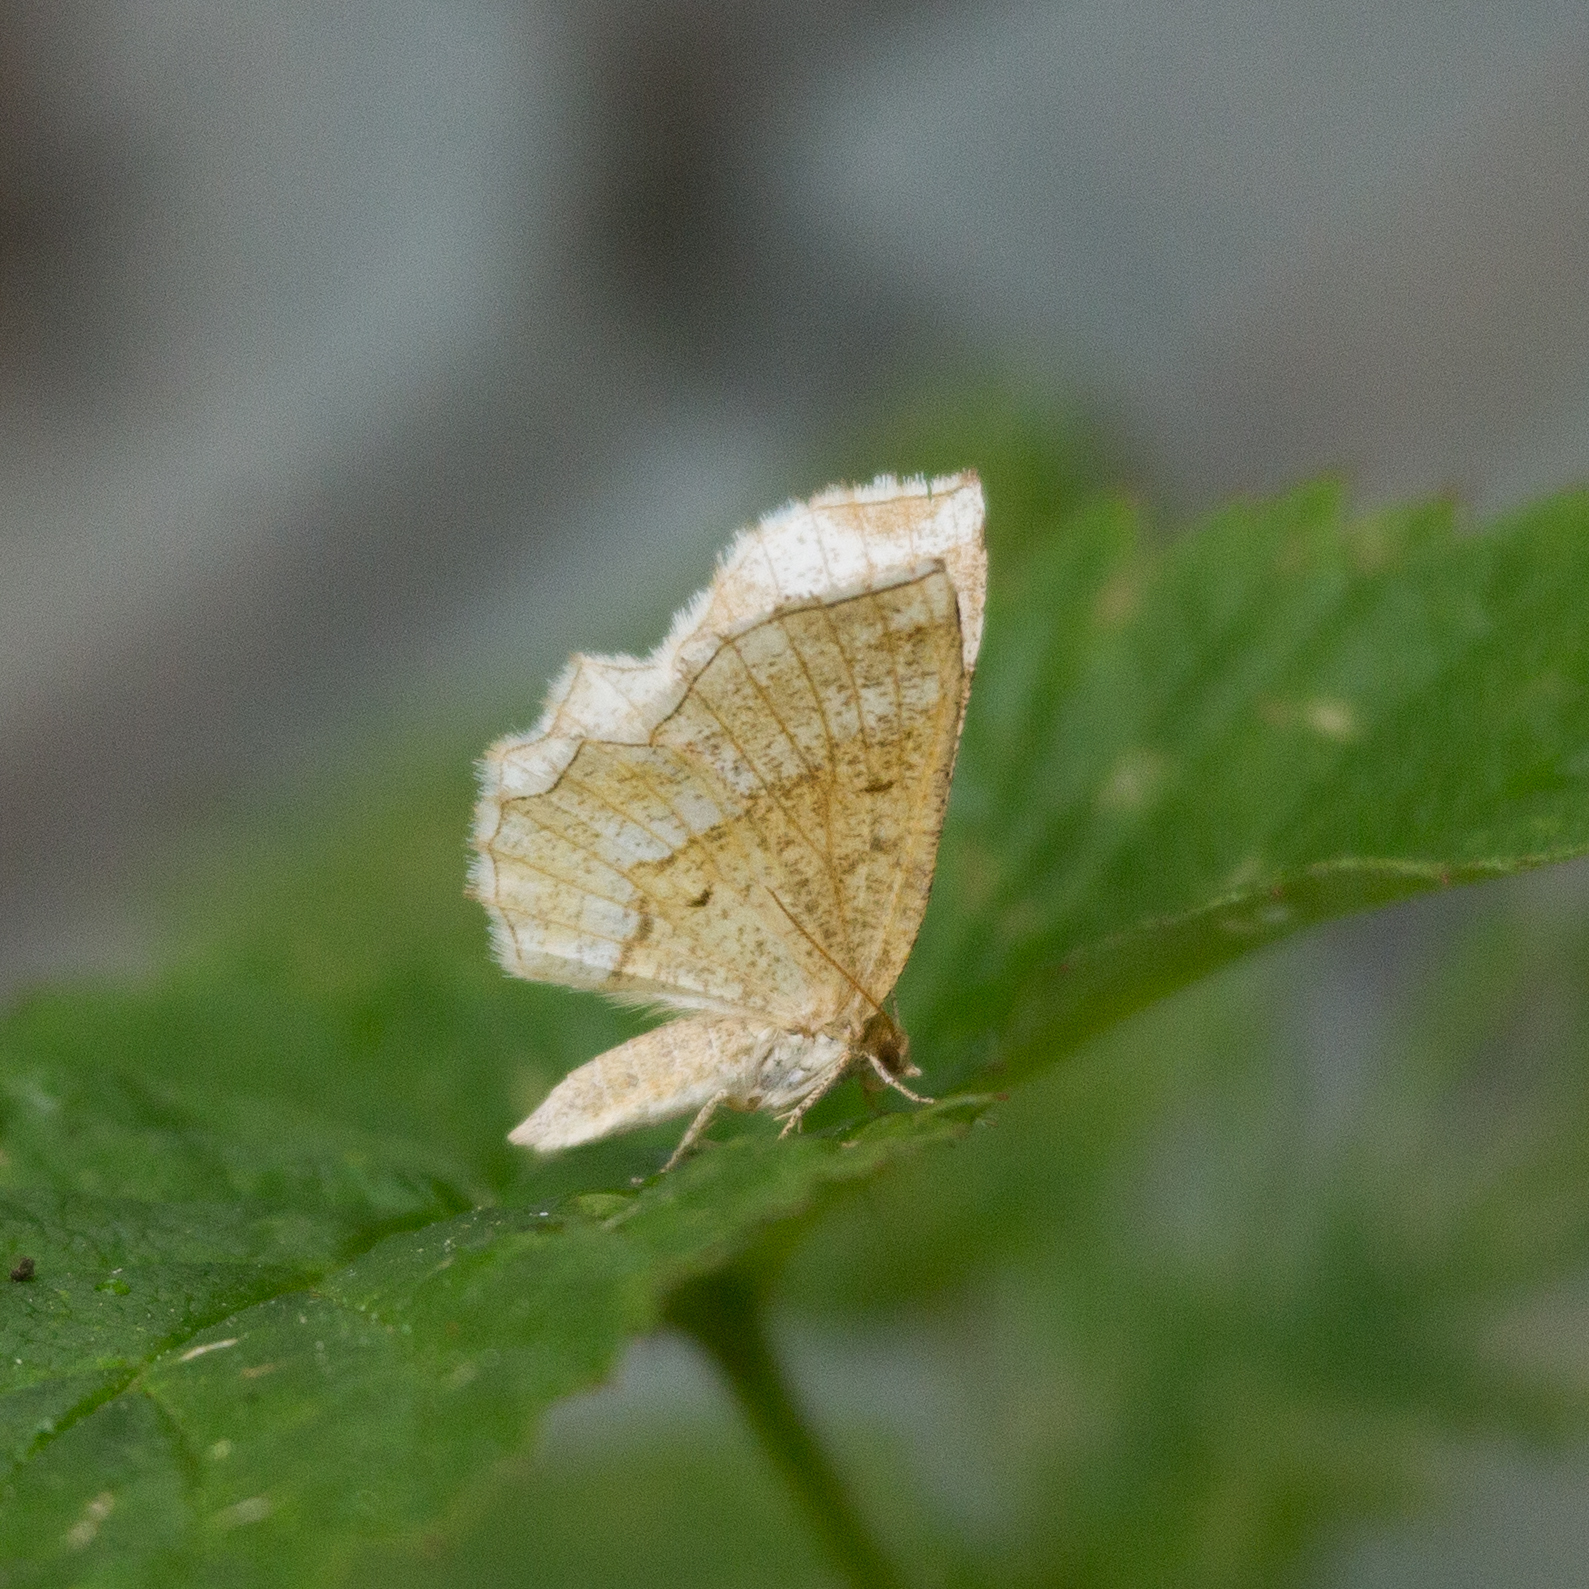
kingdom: Animalia
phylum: Arthropoda
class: Insecta
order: Lepidoptera
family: Geometridae
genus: Cepphis
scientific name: Cepphis advenaria
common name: Little thorn
